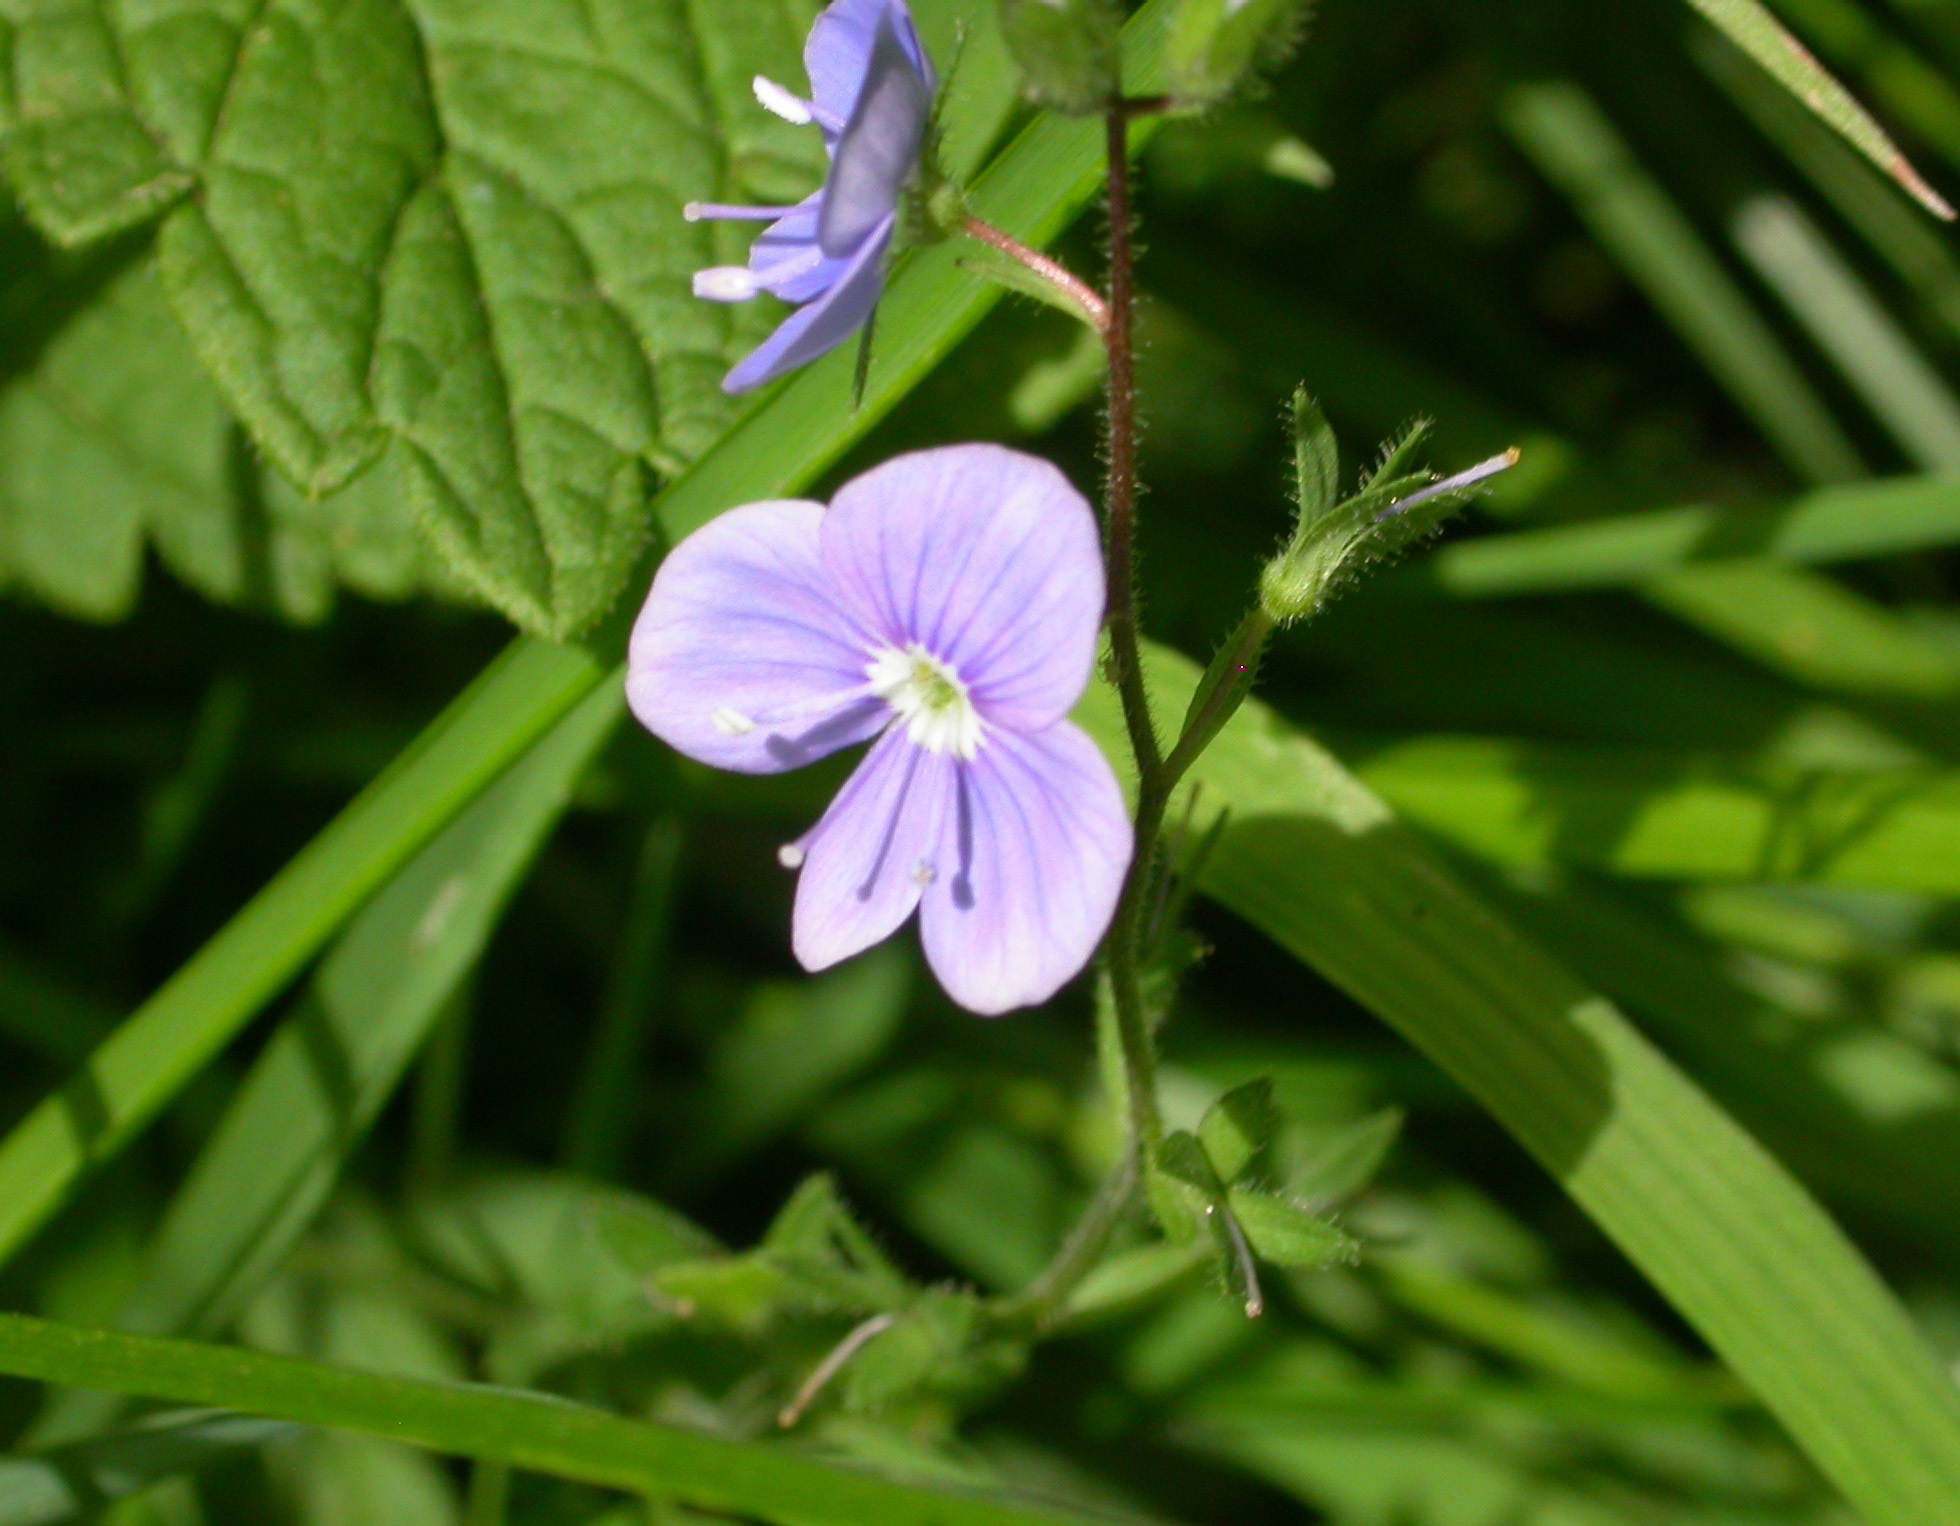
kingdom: Plantae
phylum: Tracheophyta
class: Magnoliopsida
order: Lamiales
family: Plantaginaceae
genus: Veronica
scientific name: Veronica chamaedrys
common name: Germander speedwell
